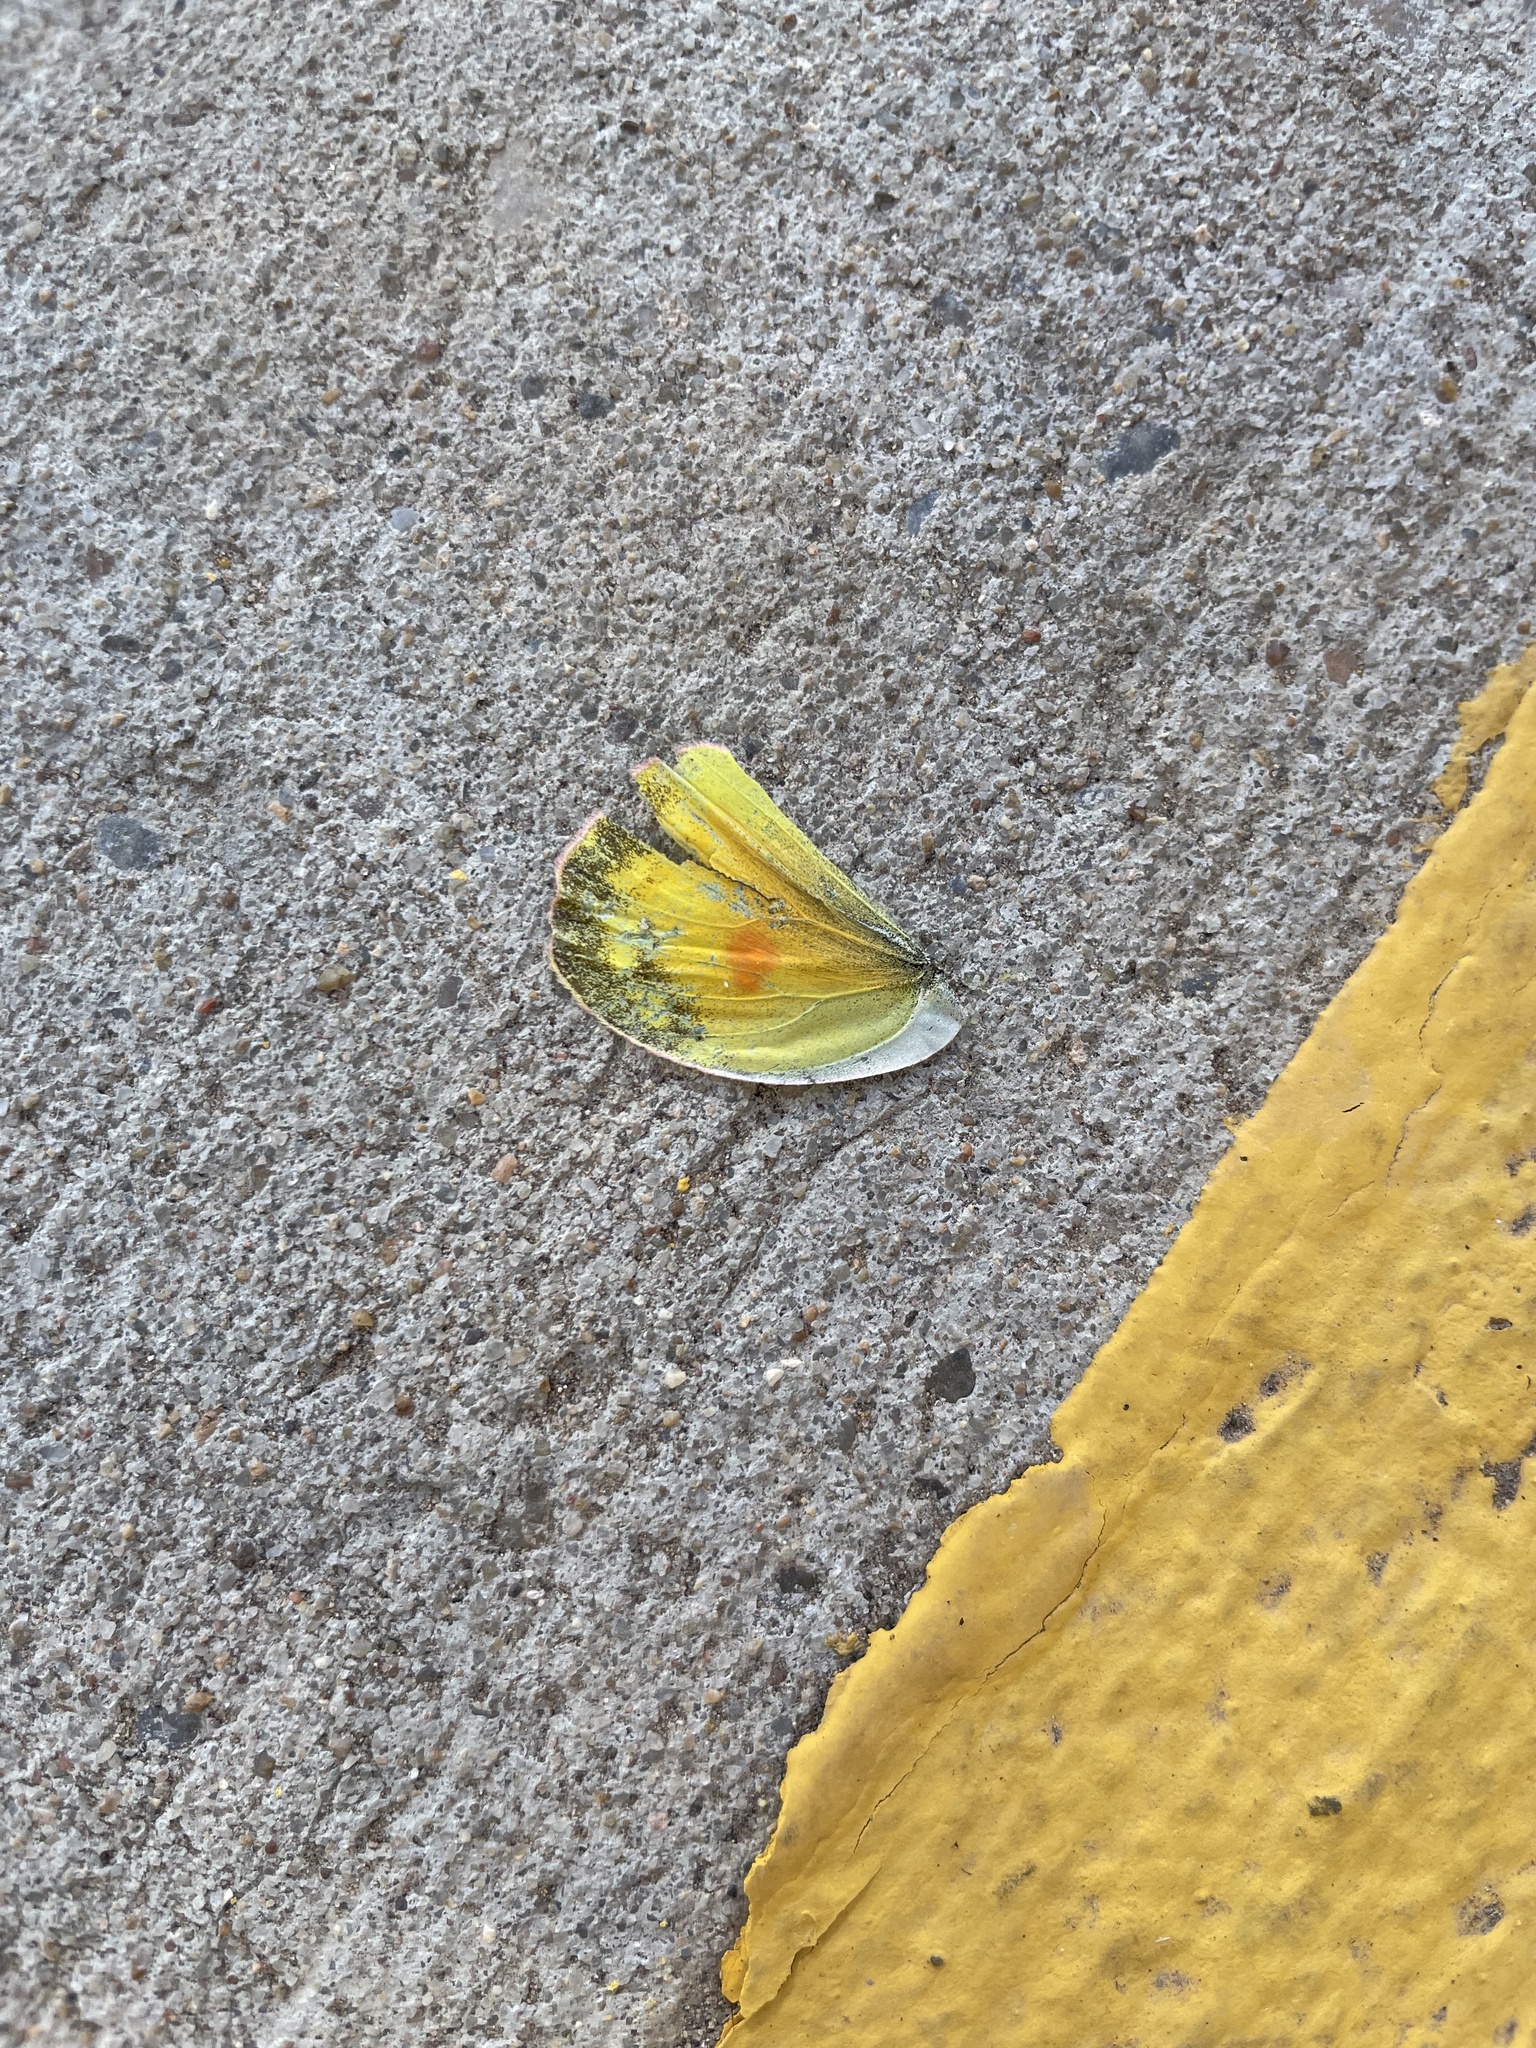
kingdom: Animalia
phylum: Arthropoda
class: Insecta
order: Lepidoptera
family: Pieridae
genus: Colias
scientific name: Colias eurytheme
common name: Alfalfa butterfly
